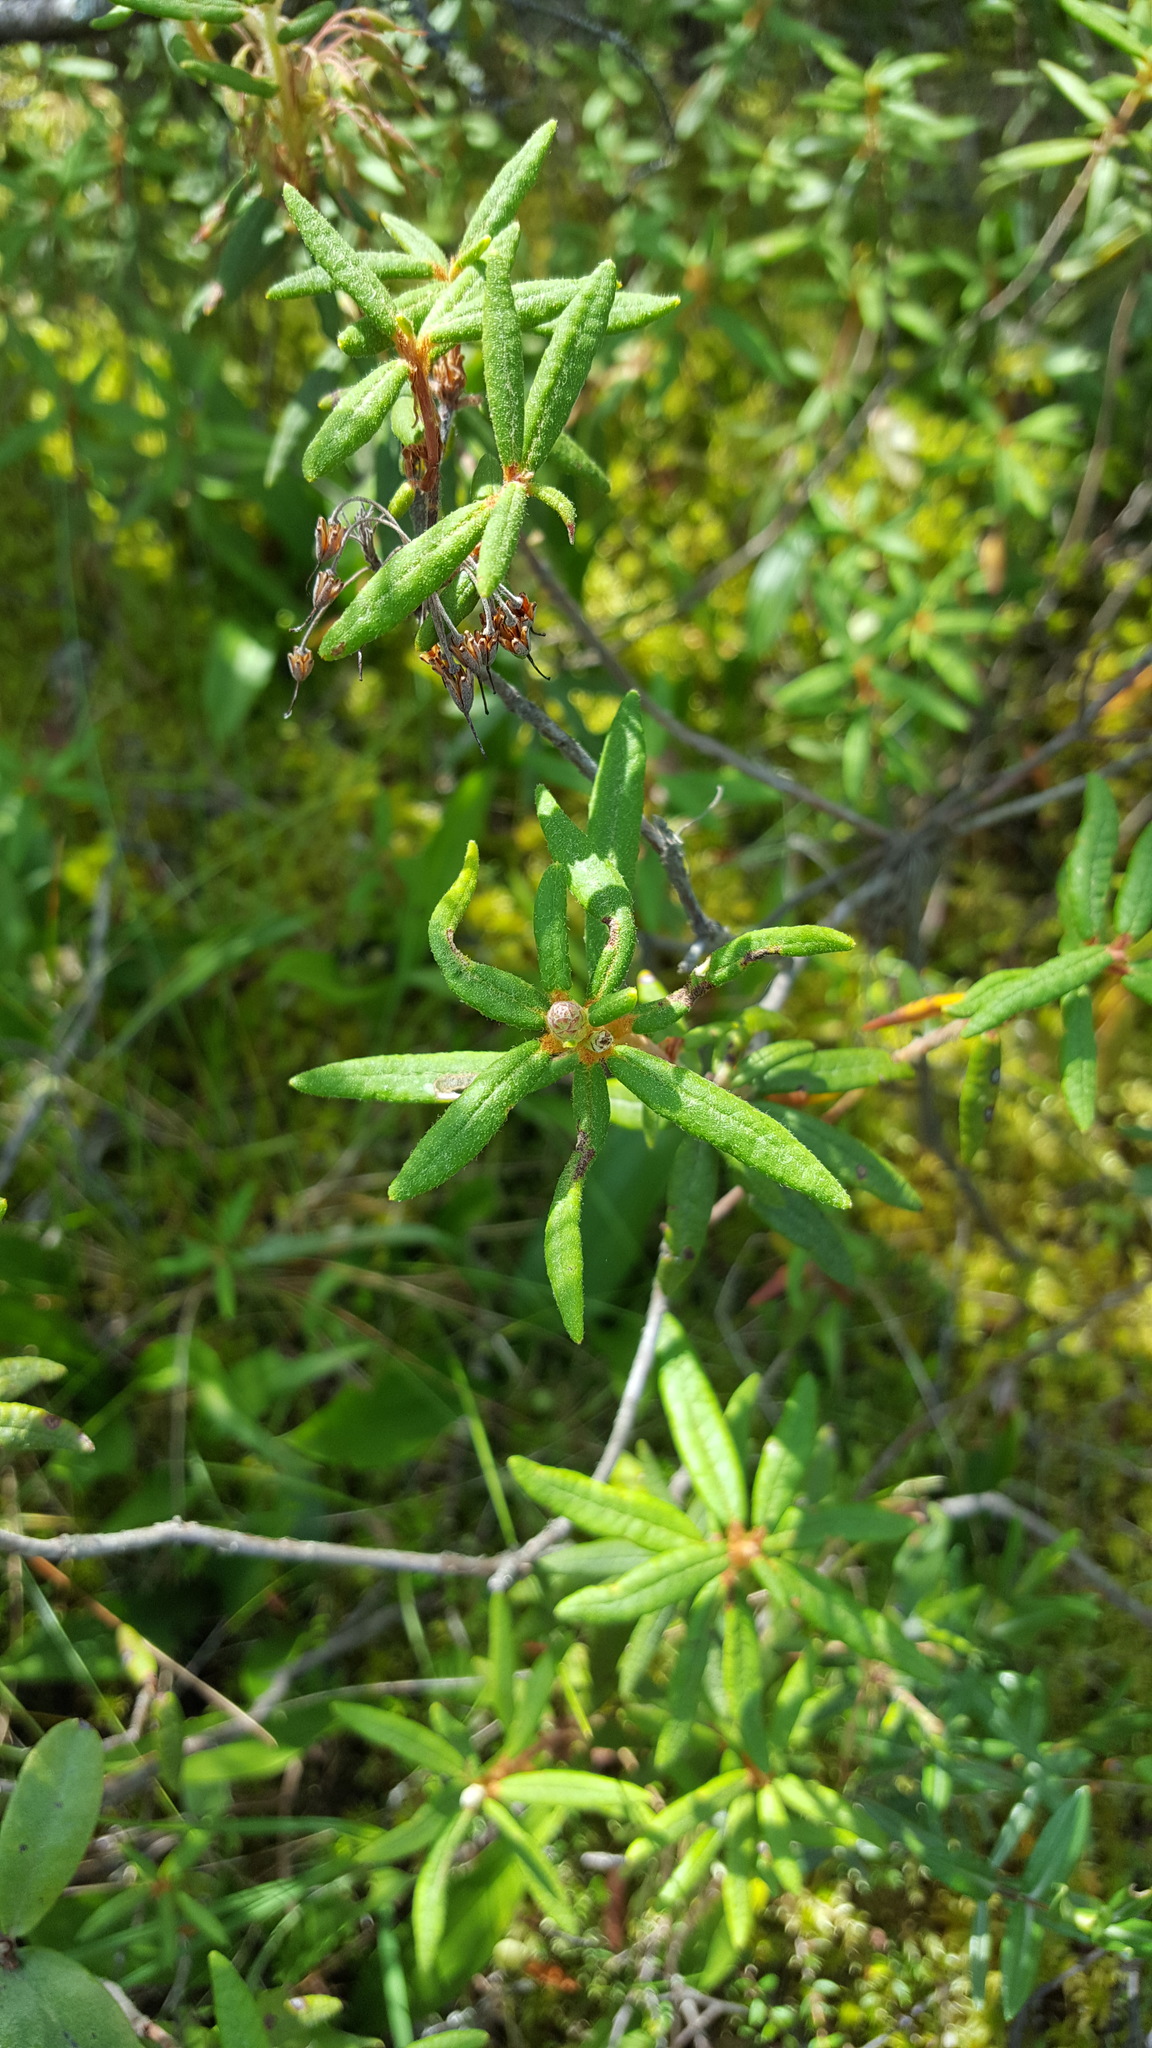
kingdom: Plantae
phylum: Tracheophyta
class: Magnoliopsida
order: Ericales
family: Ericaceae
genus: Rhododendron
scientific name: Rhododendron groenlandicum
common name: Bog labrador tea
